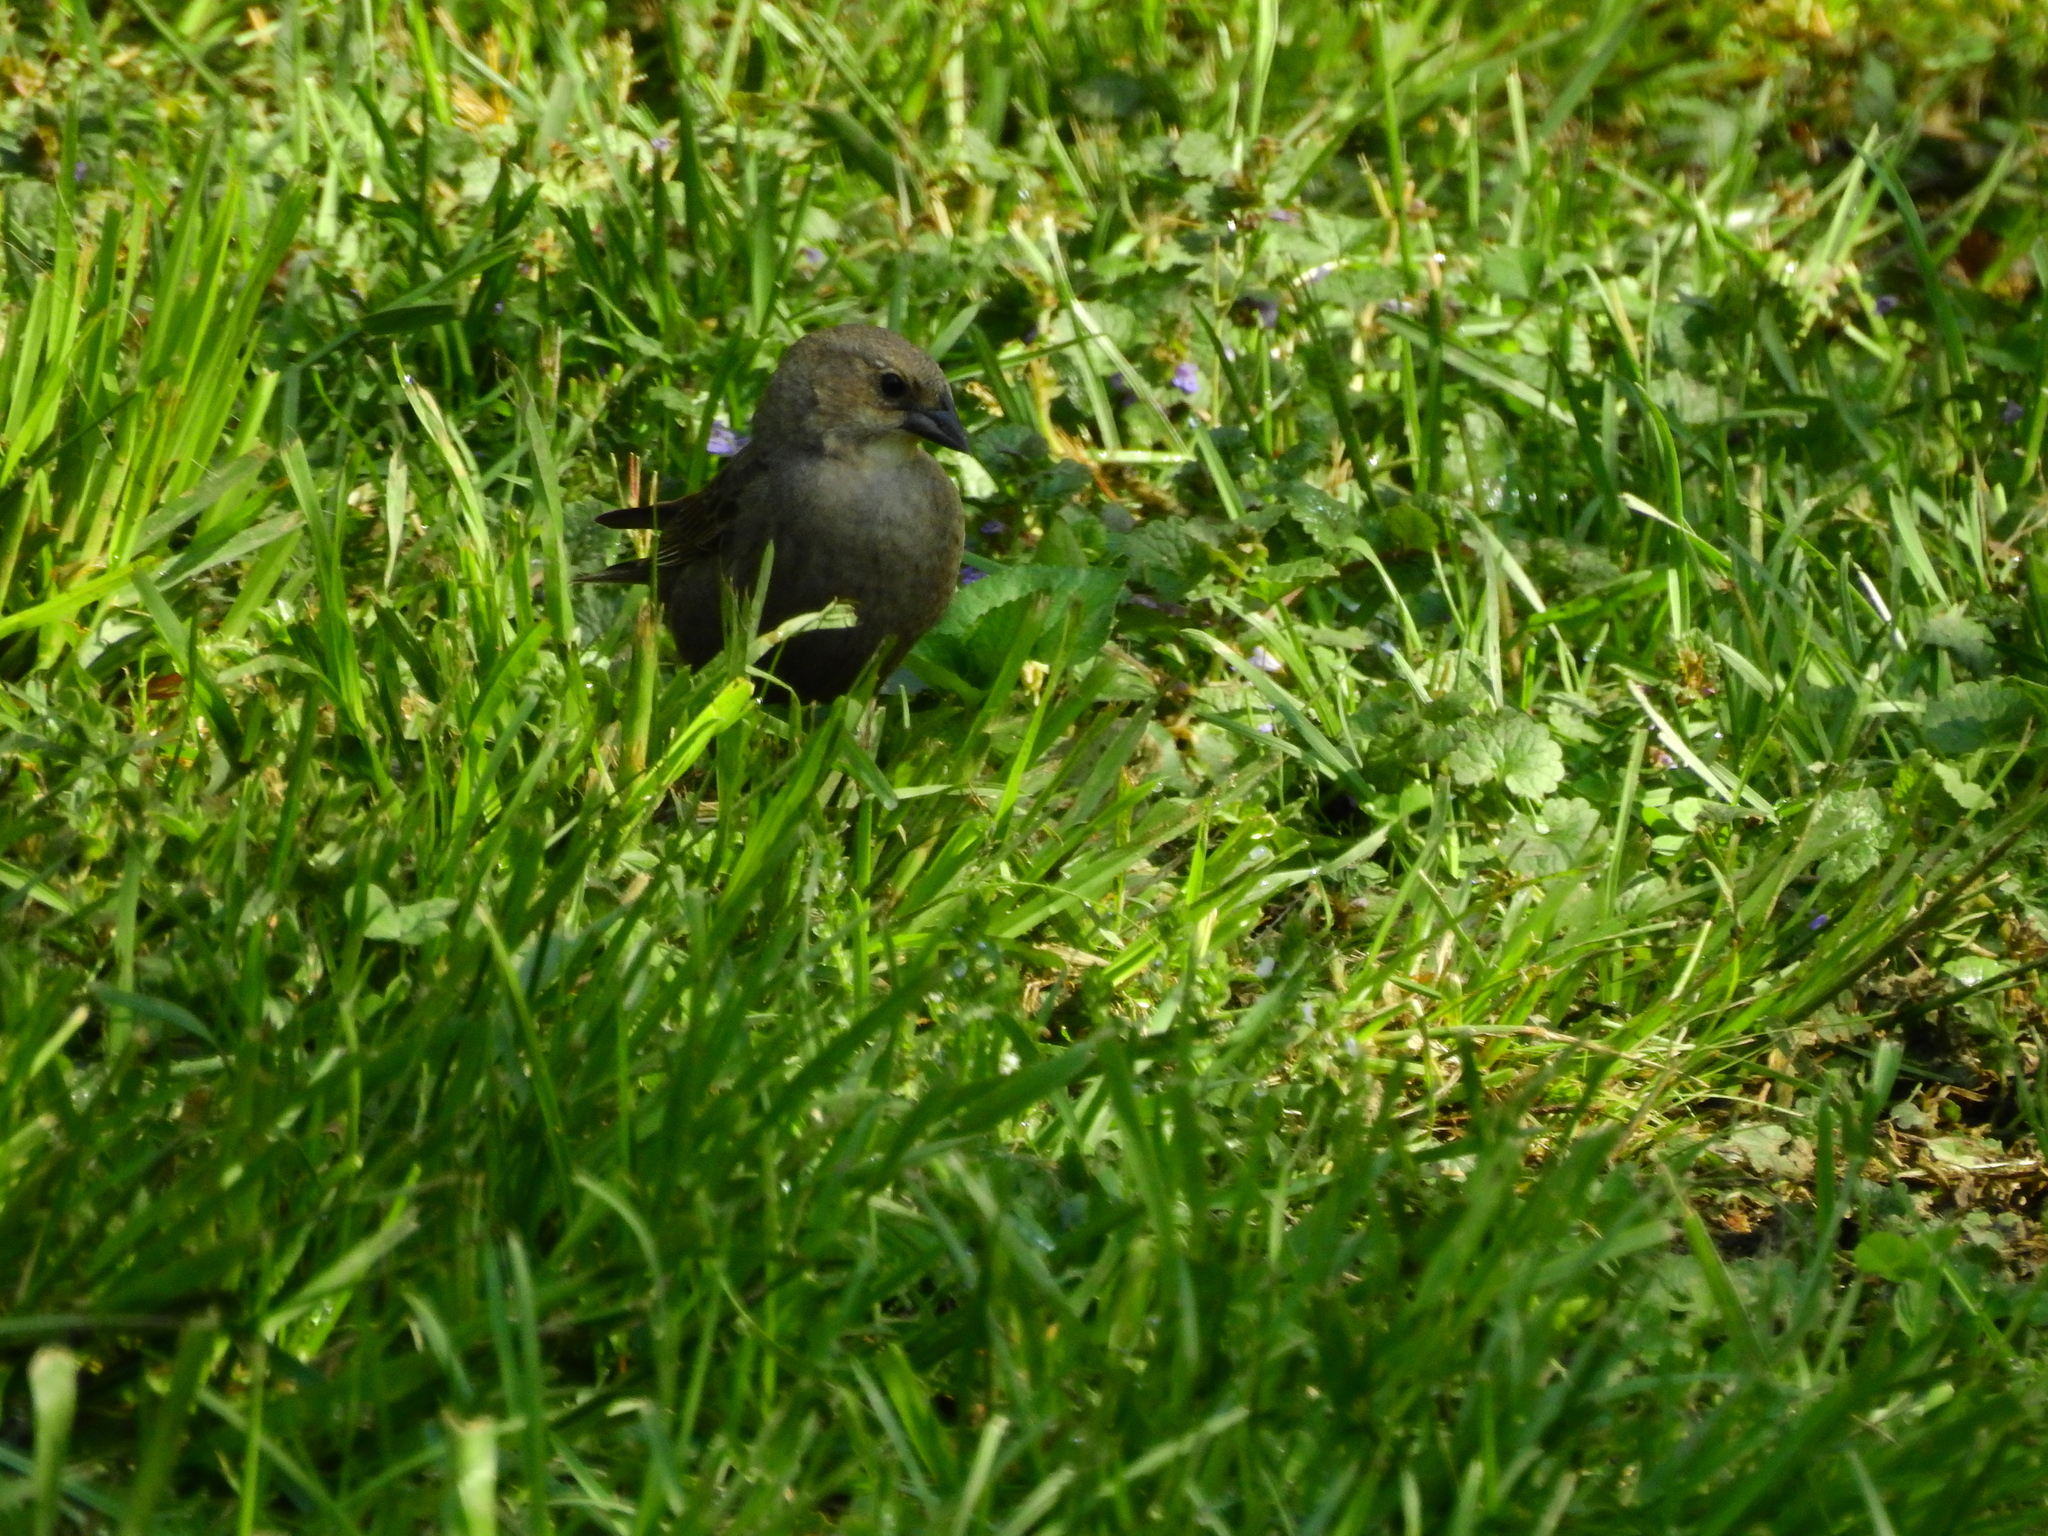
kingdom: Animalia
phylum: Chordata
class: Aves
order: Passeriformes
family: Icteridae
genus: Molothrus
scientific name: Molothrus ater
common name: Brown-headed cowbird
